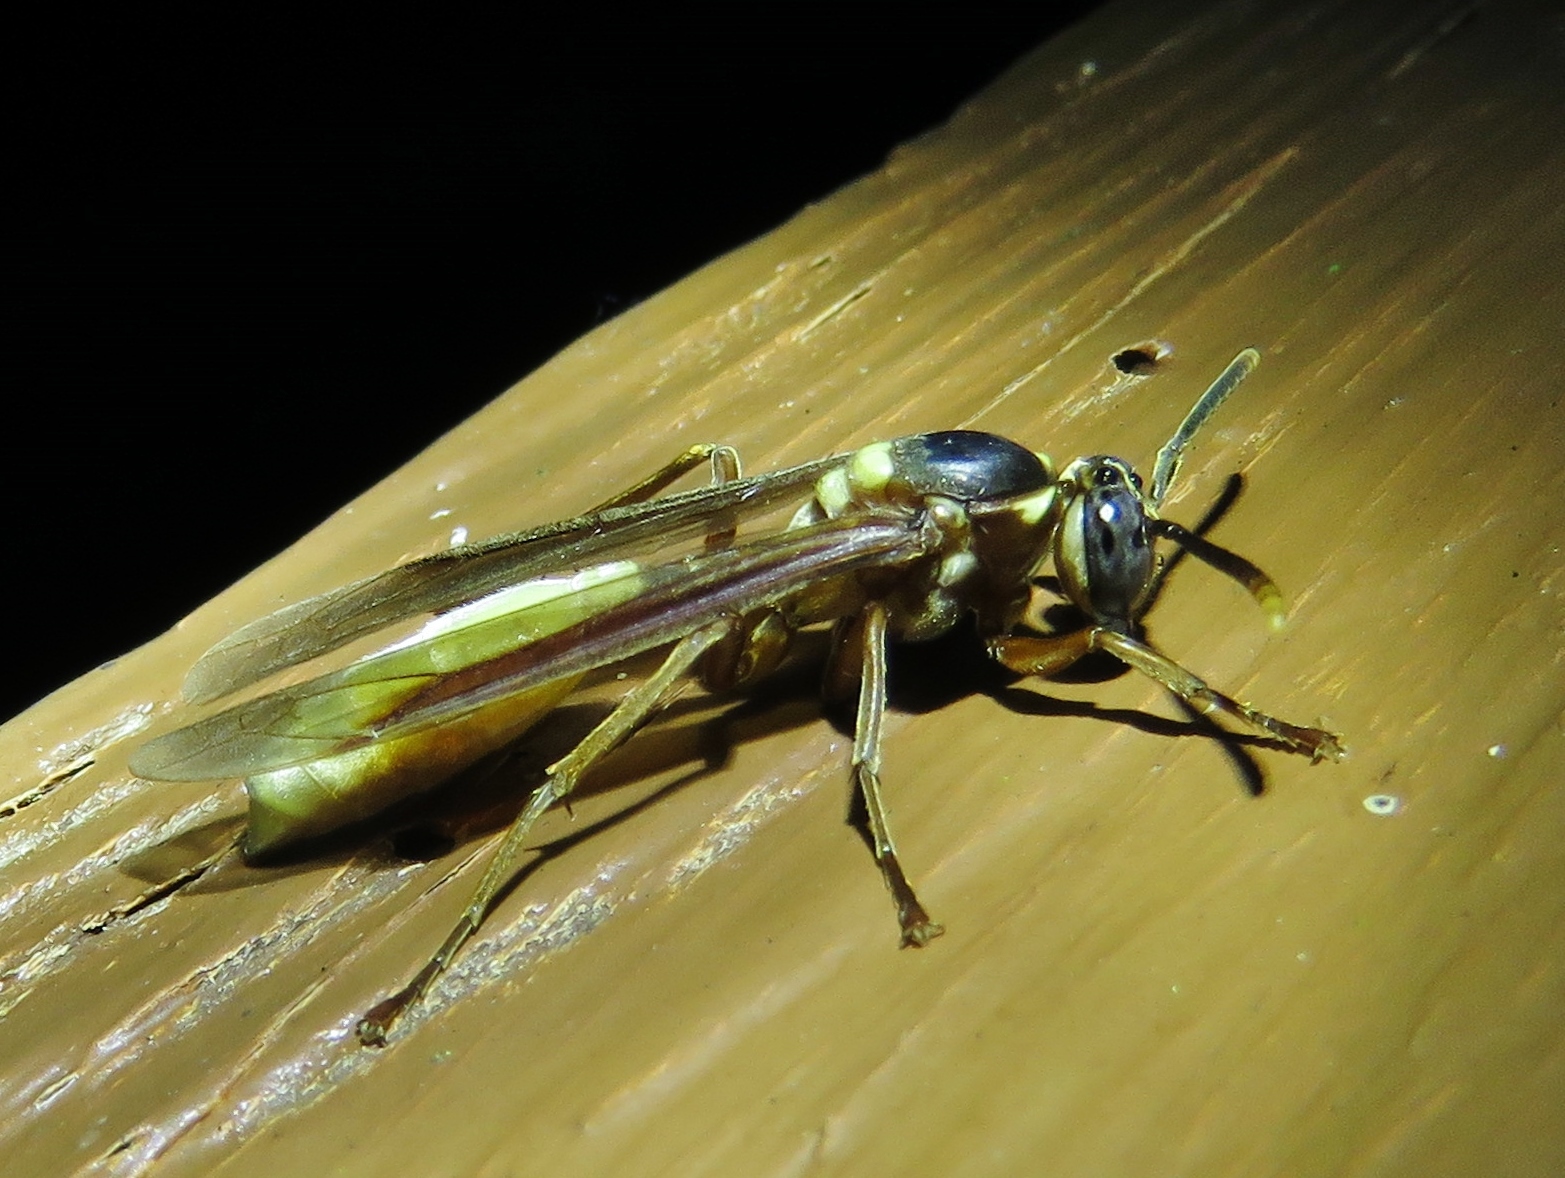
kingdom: Animalia
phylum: Arthropoda
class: Insecta
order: Hymenoptera
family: Vespidae
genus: Apoica
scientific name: Apoica pallens
